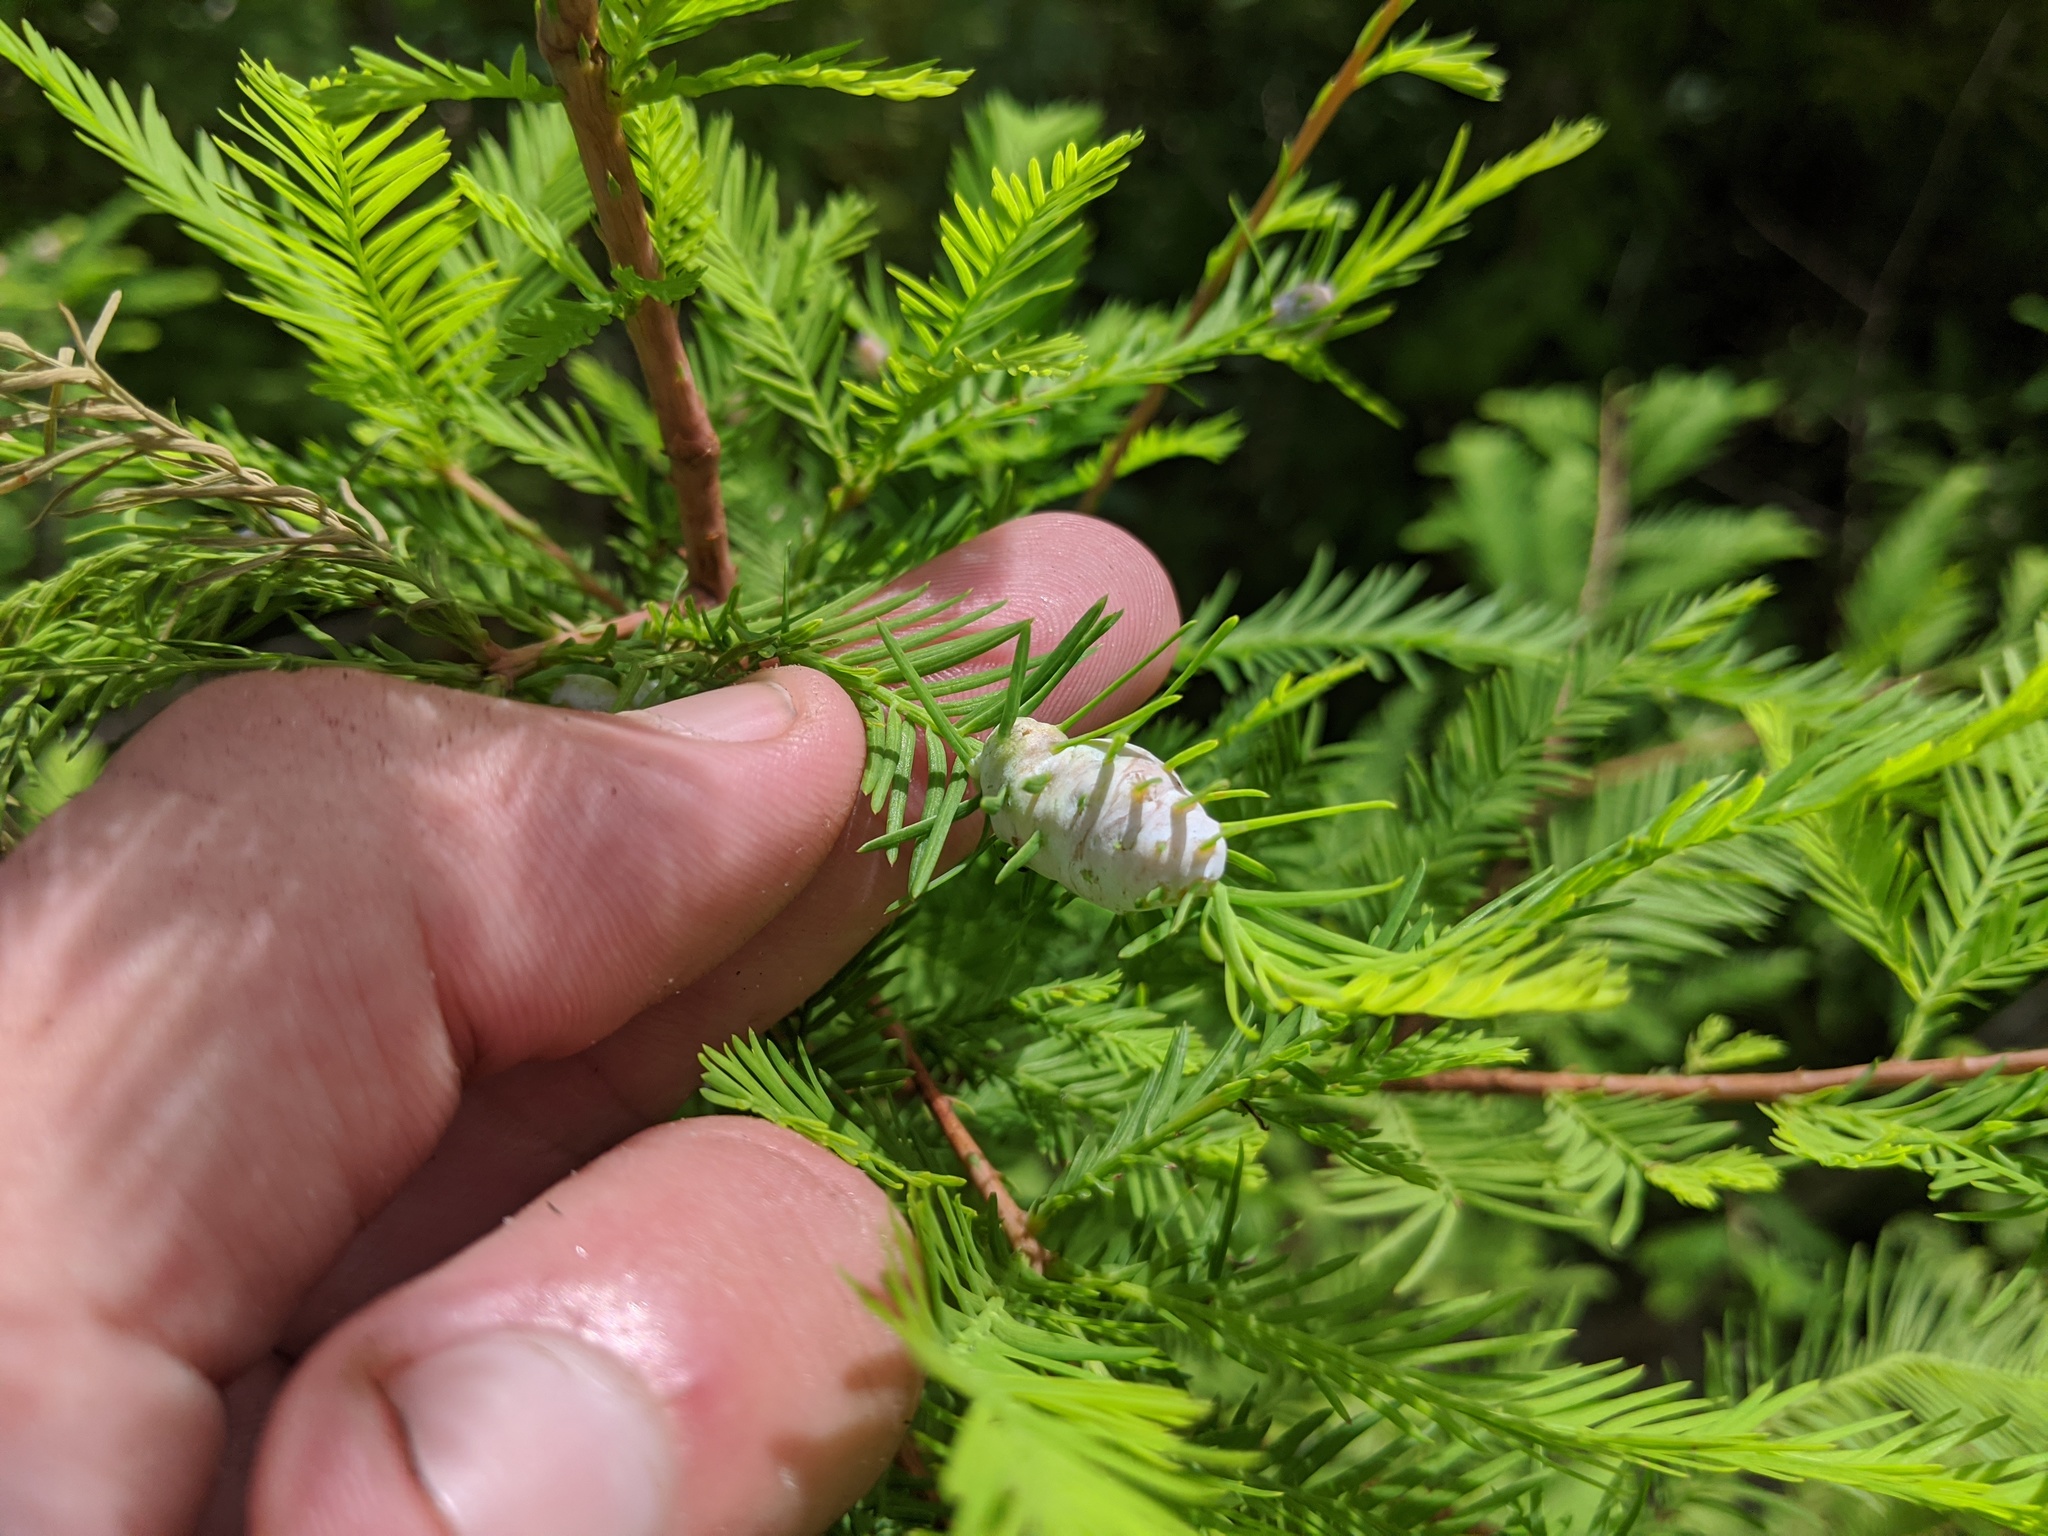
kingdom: Animalia
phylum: Arthropoda
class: Insecta
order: Diptera
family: Cecidomyiidae
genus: Taxodiomyia
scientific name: Taxodiomyia cupressiananassa
